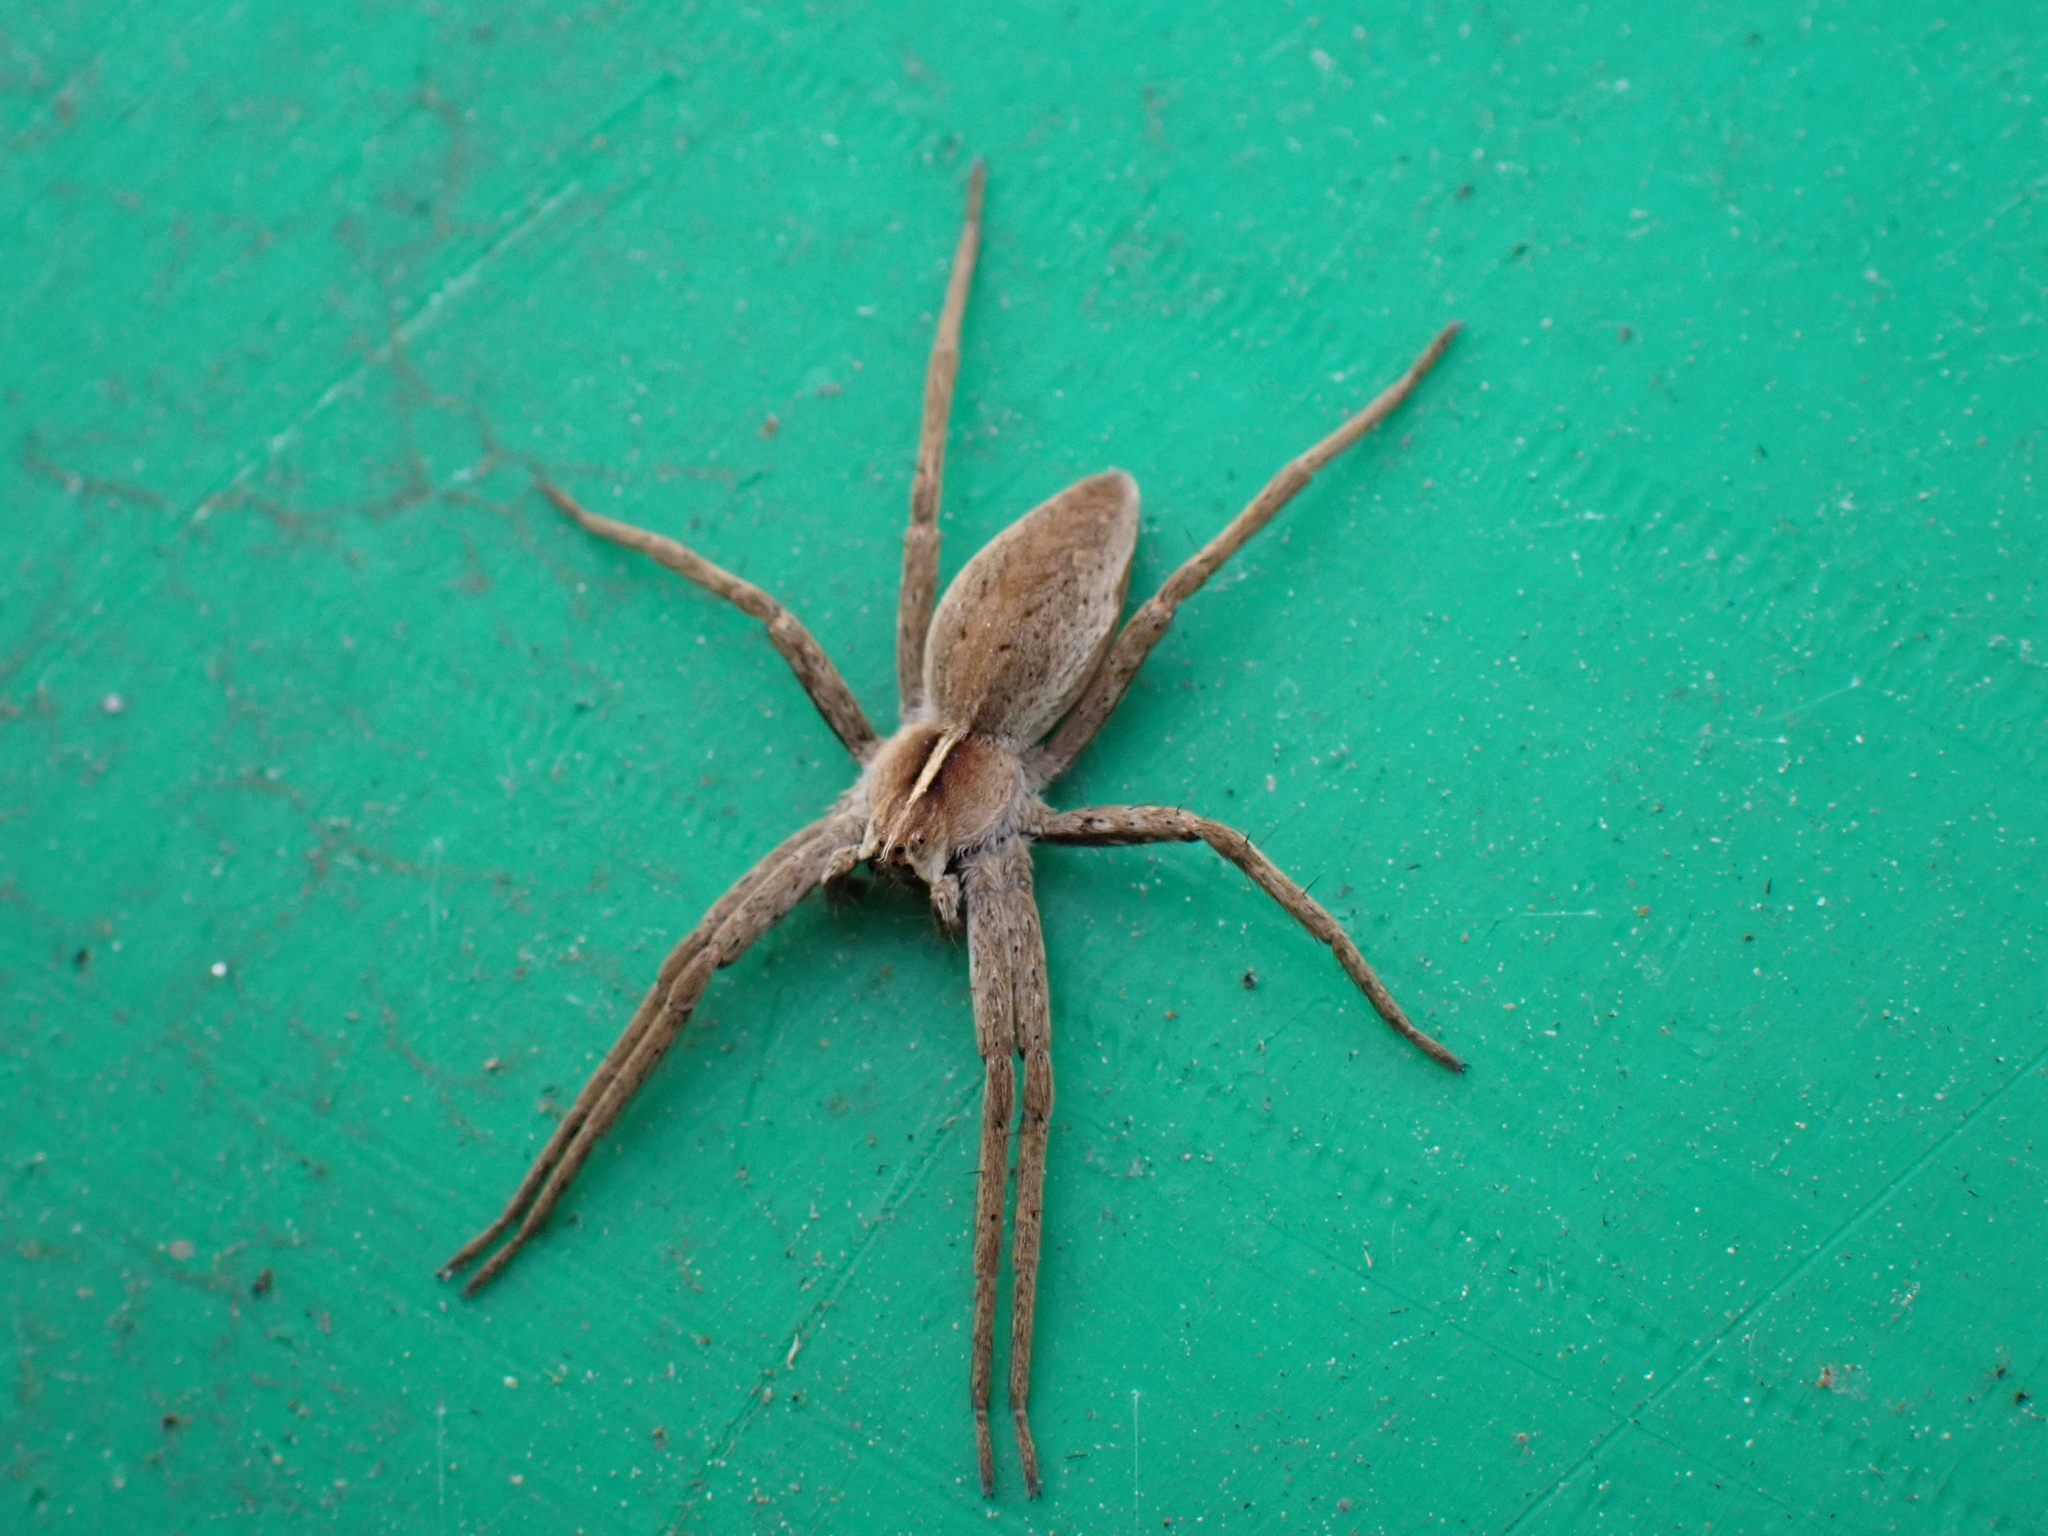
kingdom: Animalia
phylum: Arthropoda
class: Arachnida
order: Araneae
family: Pisauridae
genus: Pisaura
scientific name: Pisaura mirabilis
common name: Tent spider
